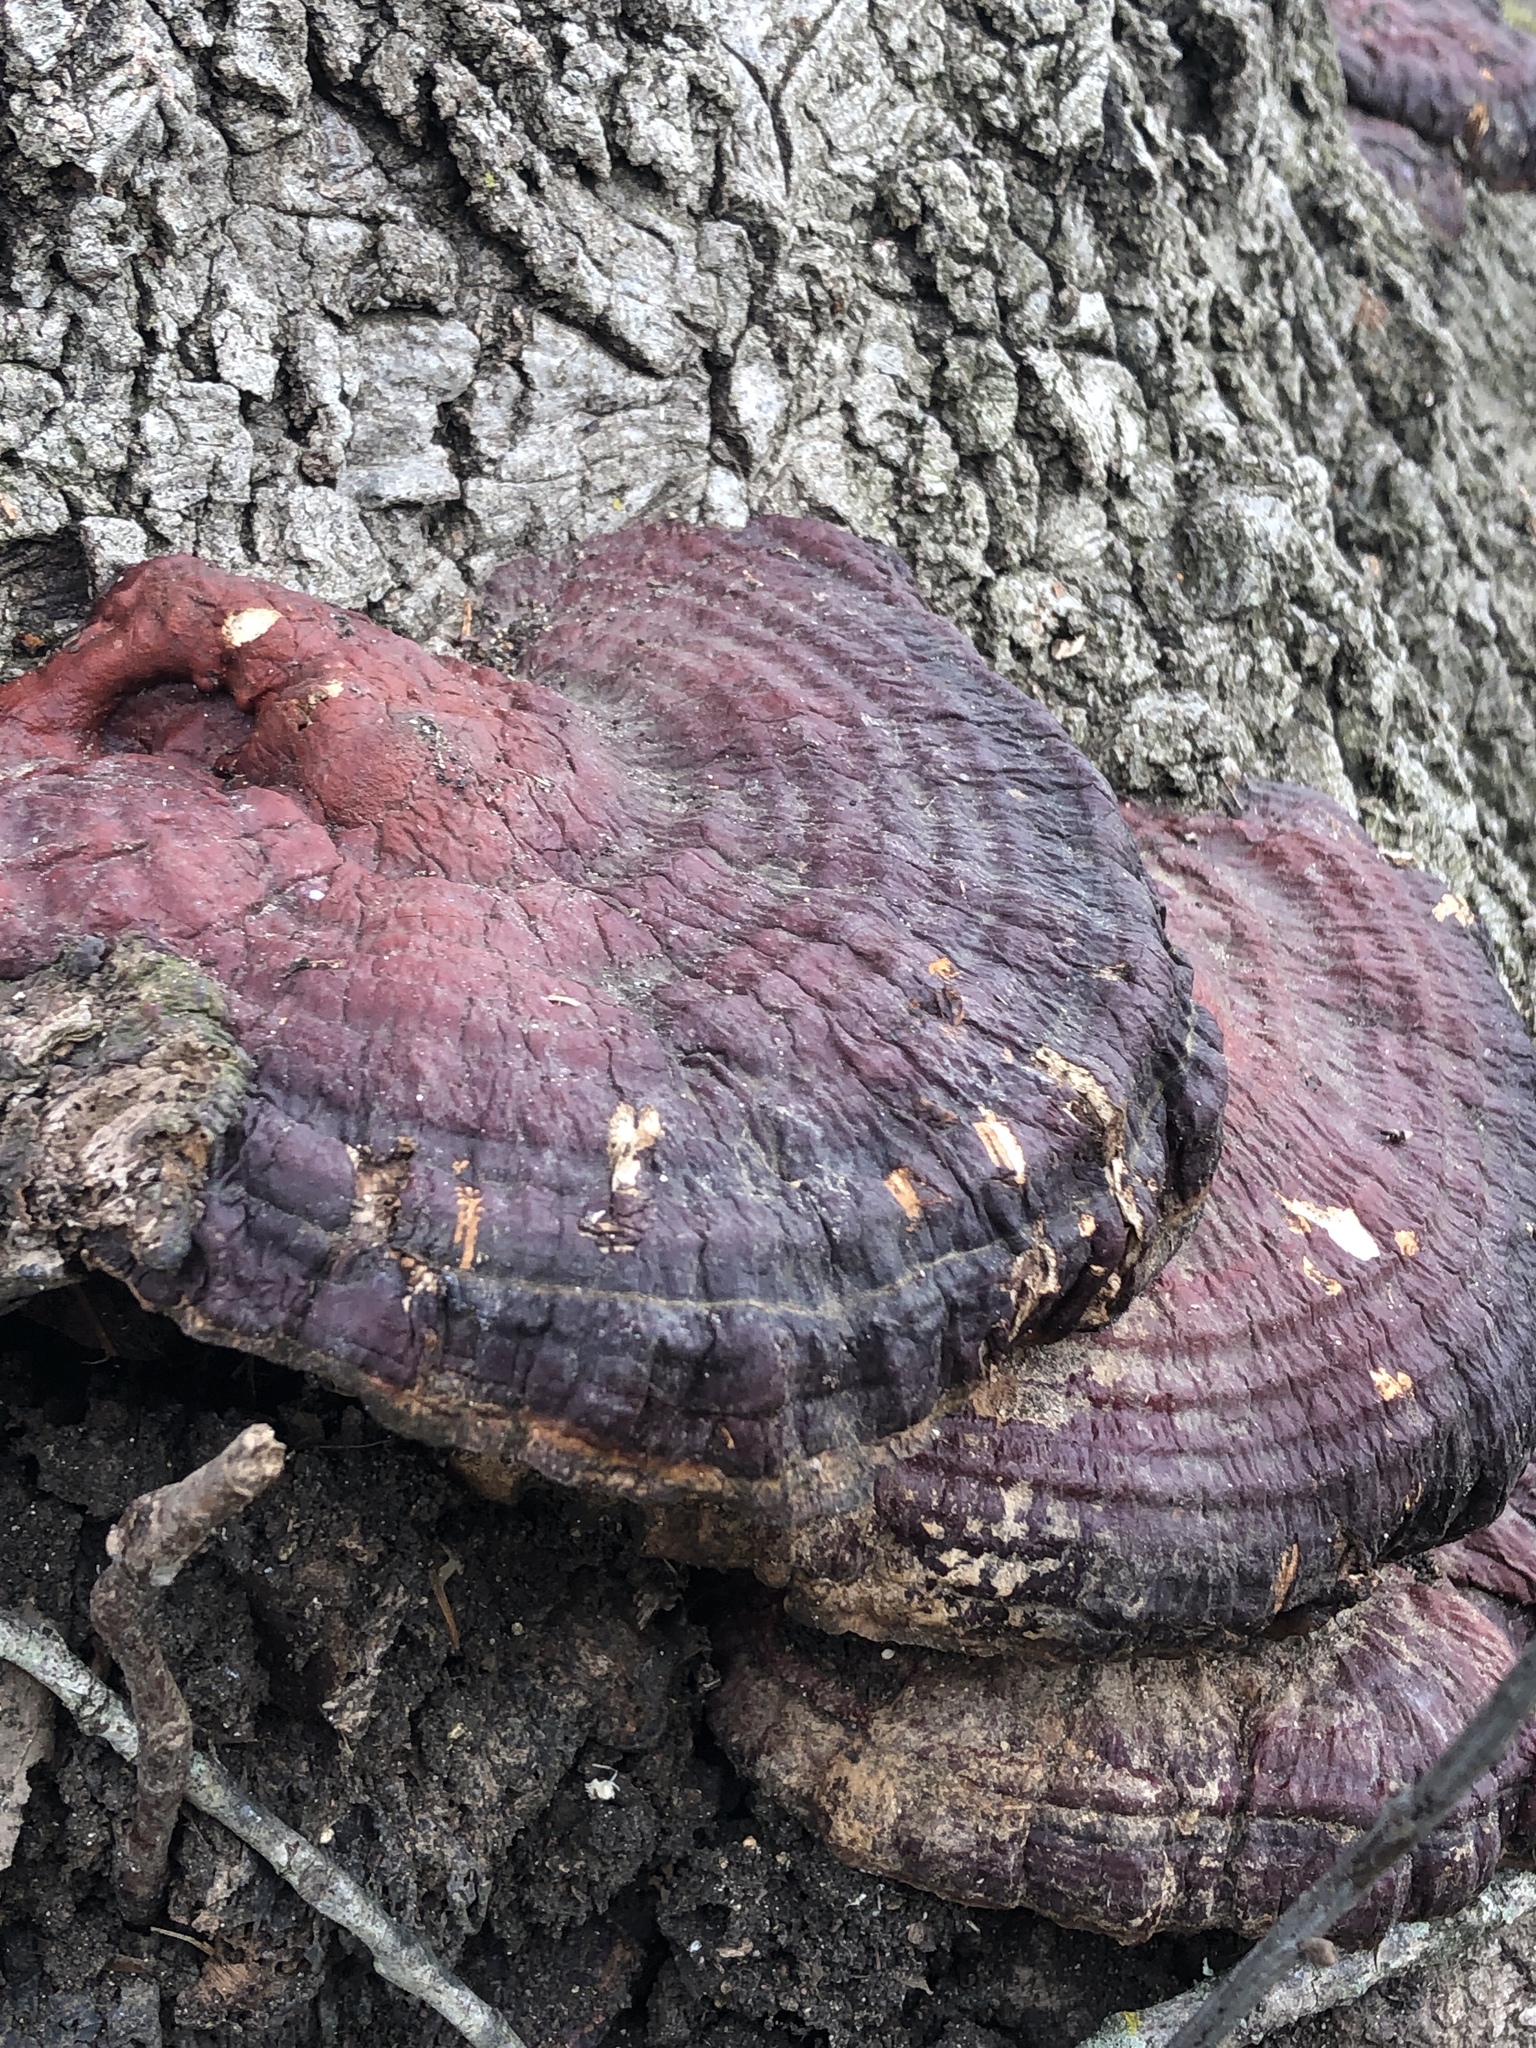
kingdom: Fungi
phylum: Basidiomycota
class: Agaricomycetes
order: Polyporales
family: Polyporaceae
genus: Ganoderma
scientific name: Ganoderma resinaceum
